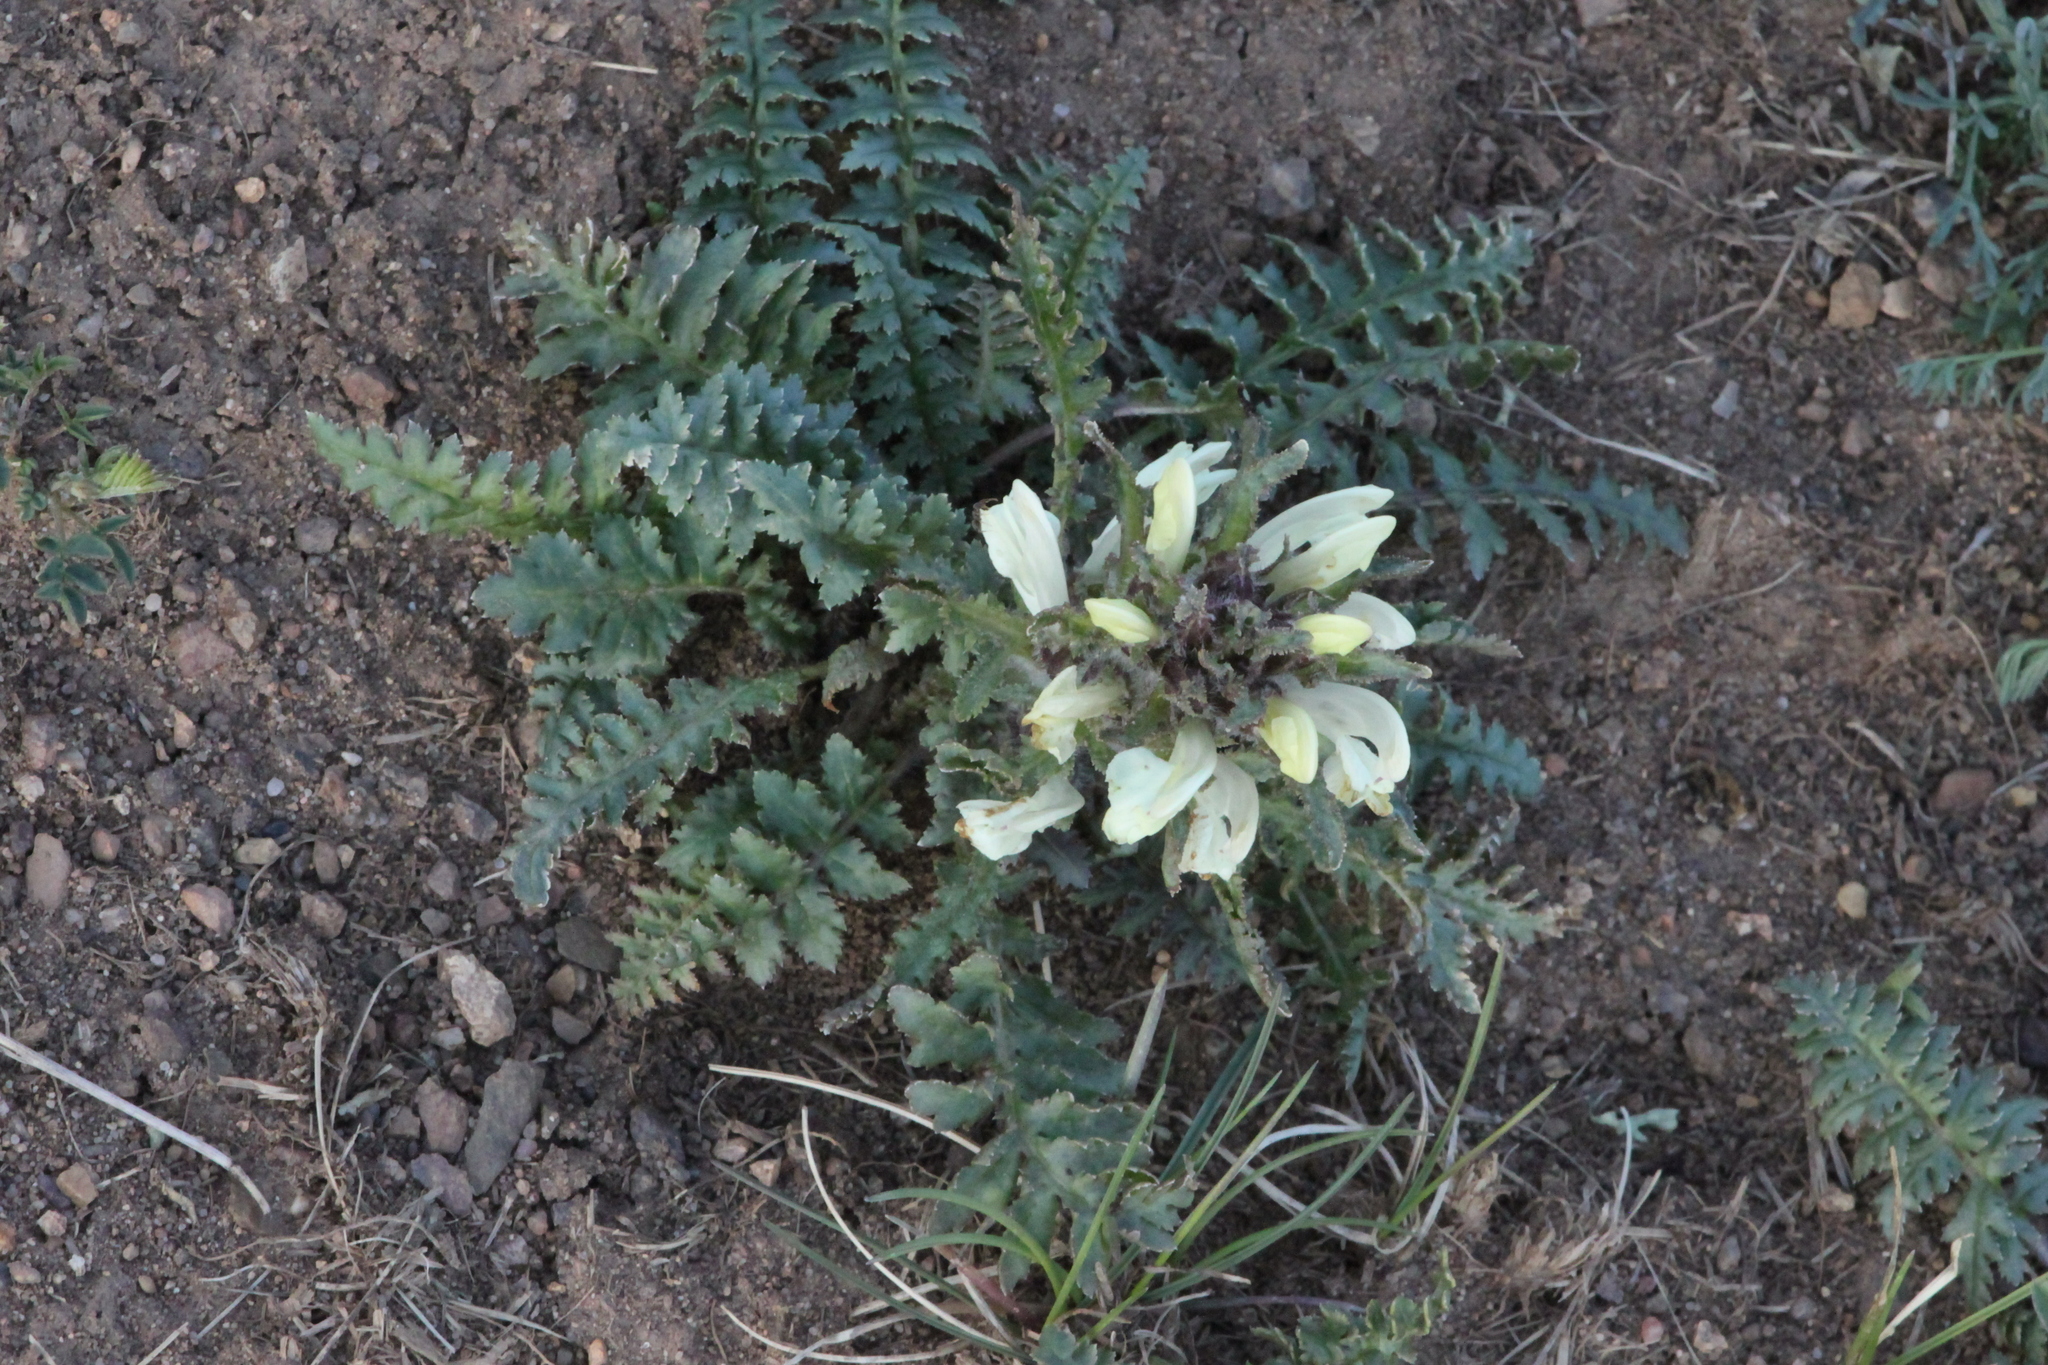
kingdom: Plantae
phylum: Tracheophyta
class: Magnoliopsida
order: Lamiales
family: Orobanchaceae
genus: Pedicularis
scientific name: Pedicularis physocalyx
